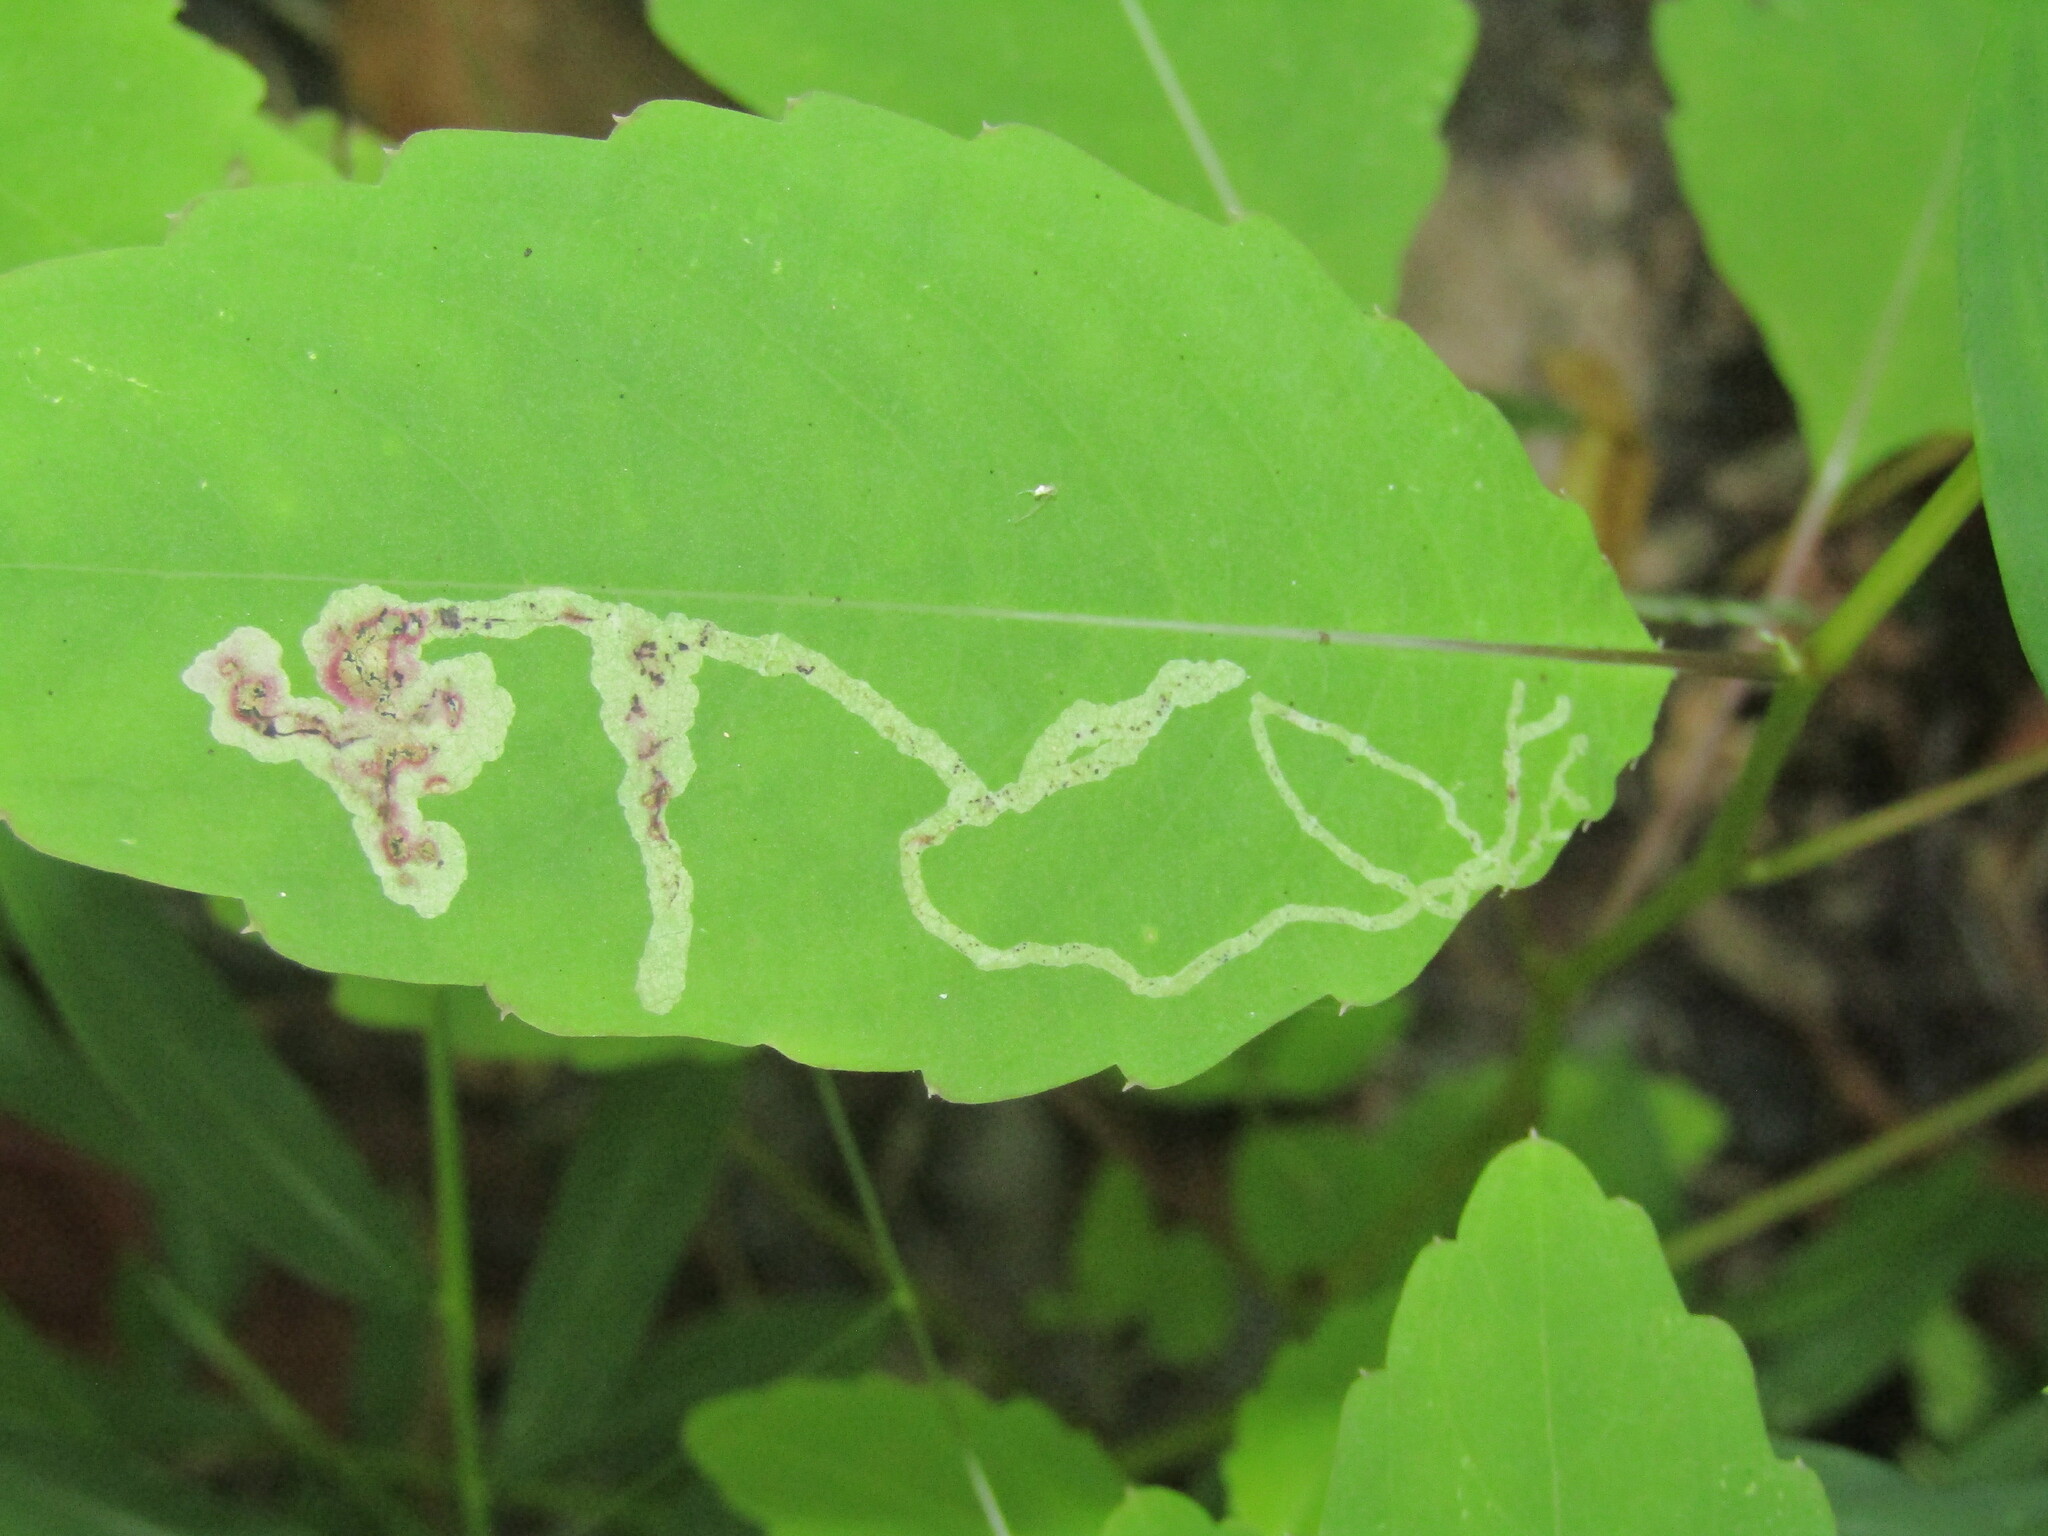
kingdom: Animalia
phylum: Arthropoda
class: Insecta
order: Diptera
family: Agromyzidae
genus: Phytoliriomyza
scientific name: Phytoliriomyza melampyga
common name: Jewelweed leaf-miner fly
